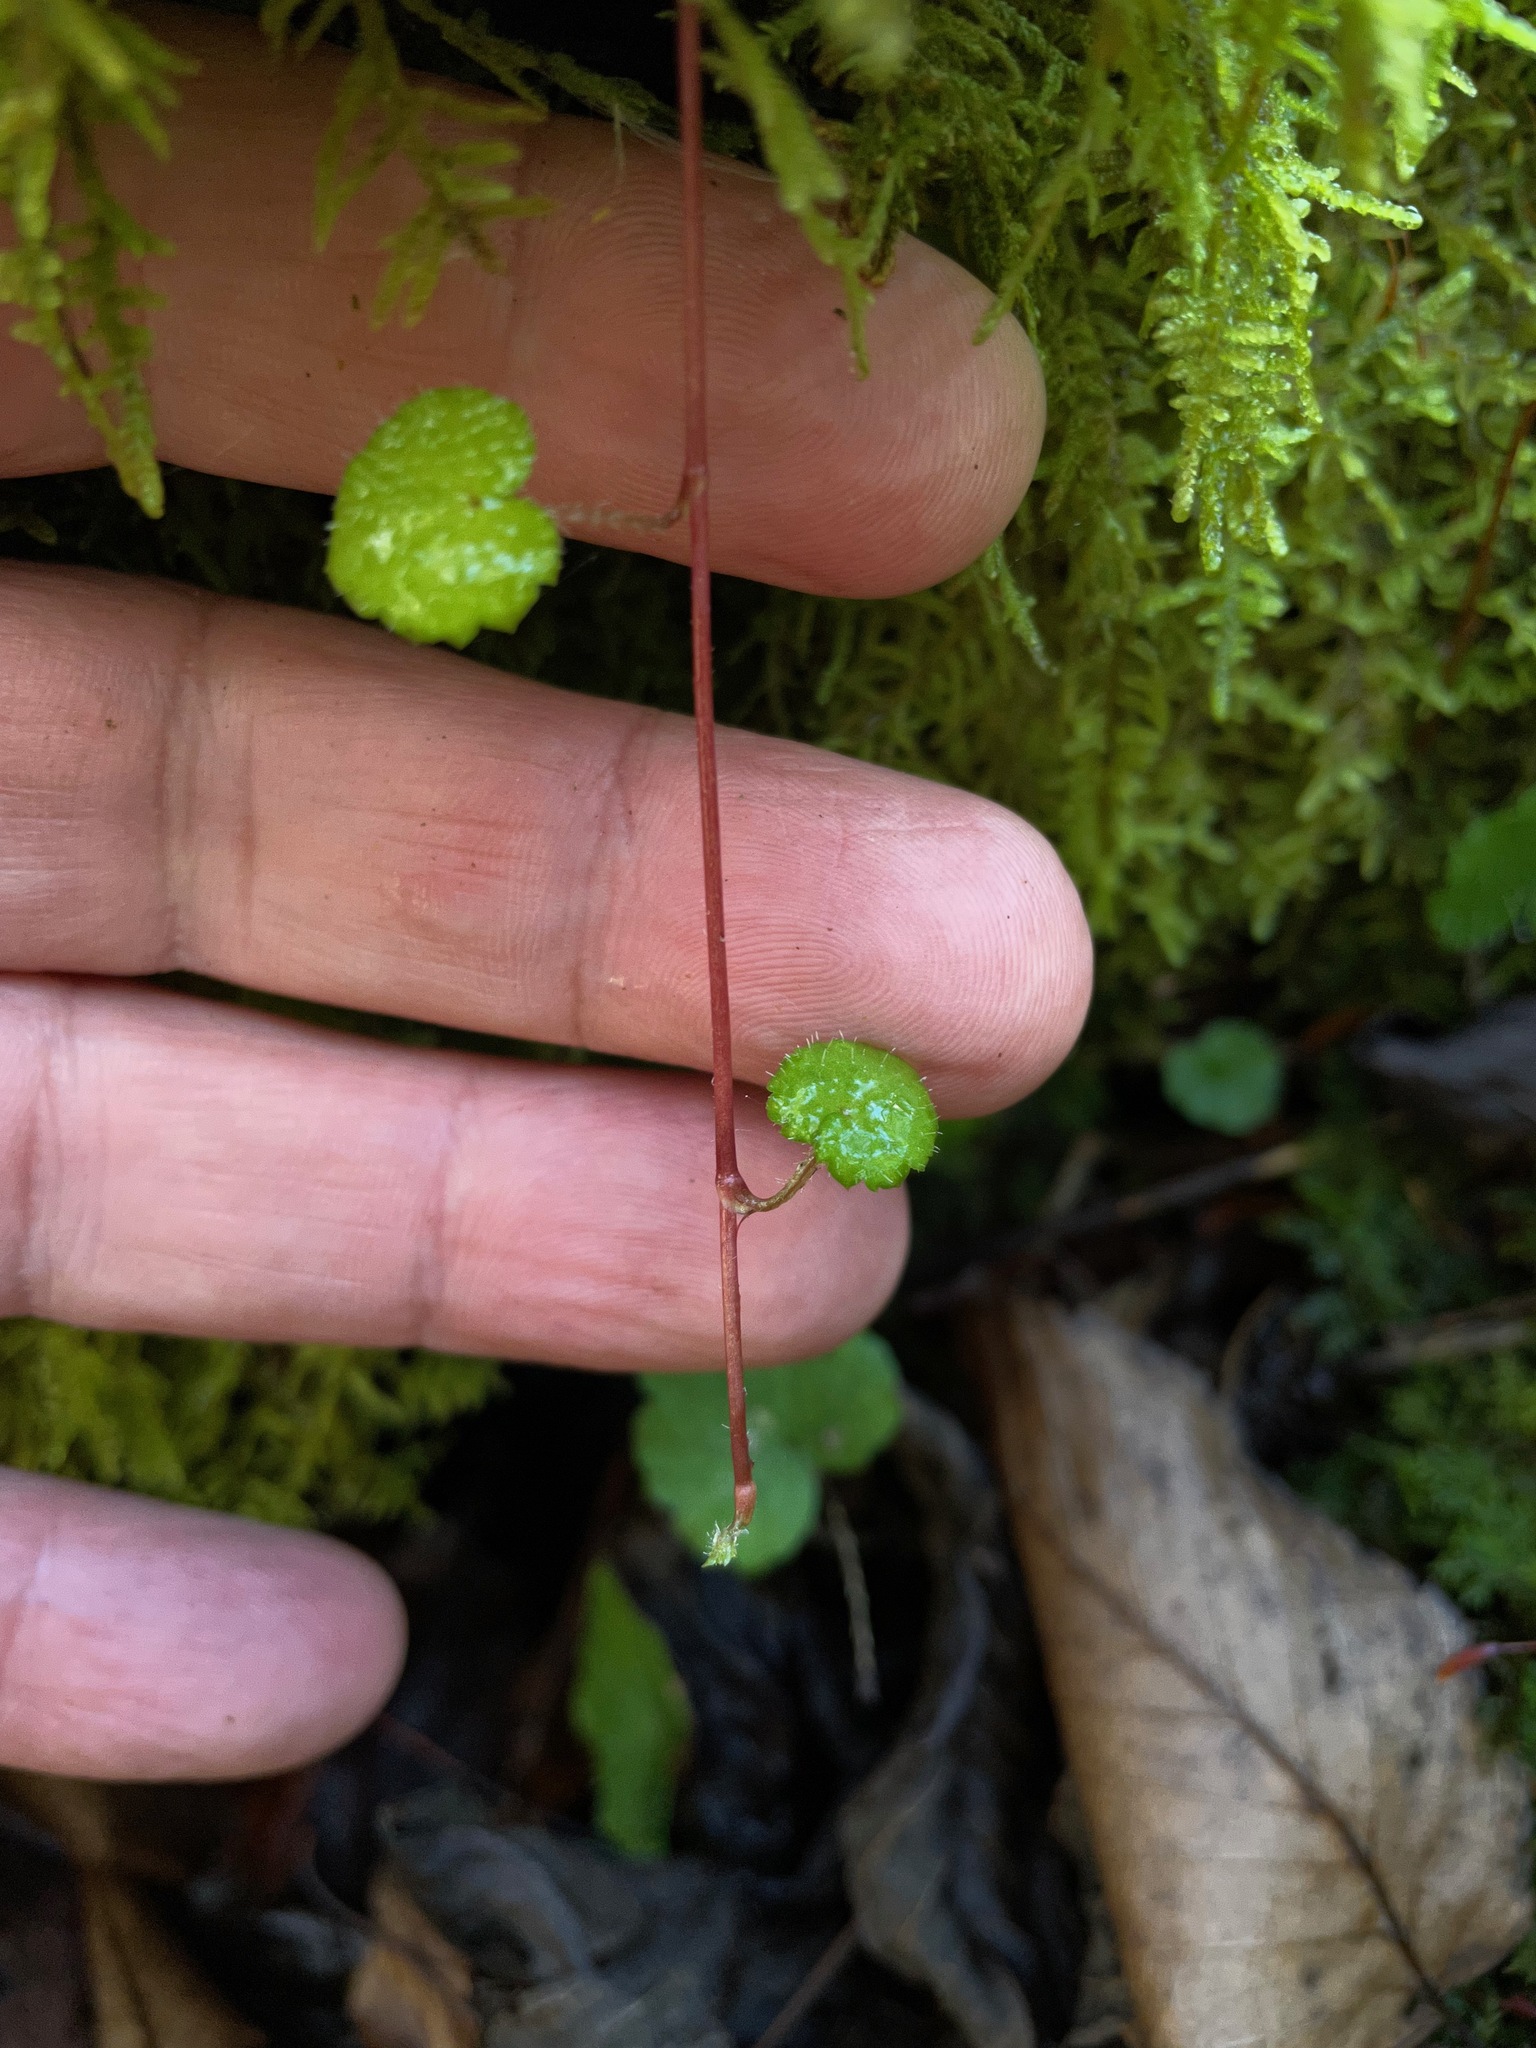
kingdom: Plantae
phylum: Tracheophyta
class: Magnoliopsida
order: Saxifragales
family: Saxifragaceae
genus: Mitella
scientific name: Mitella nuda
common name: Bare-stemmed bishop's-cap
